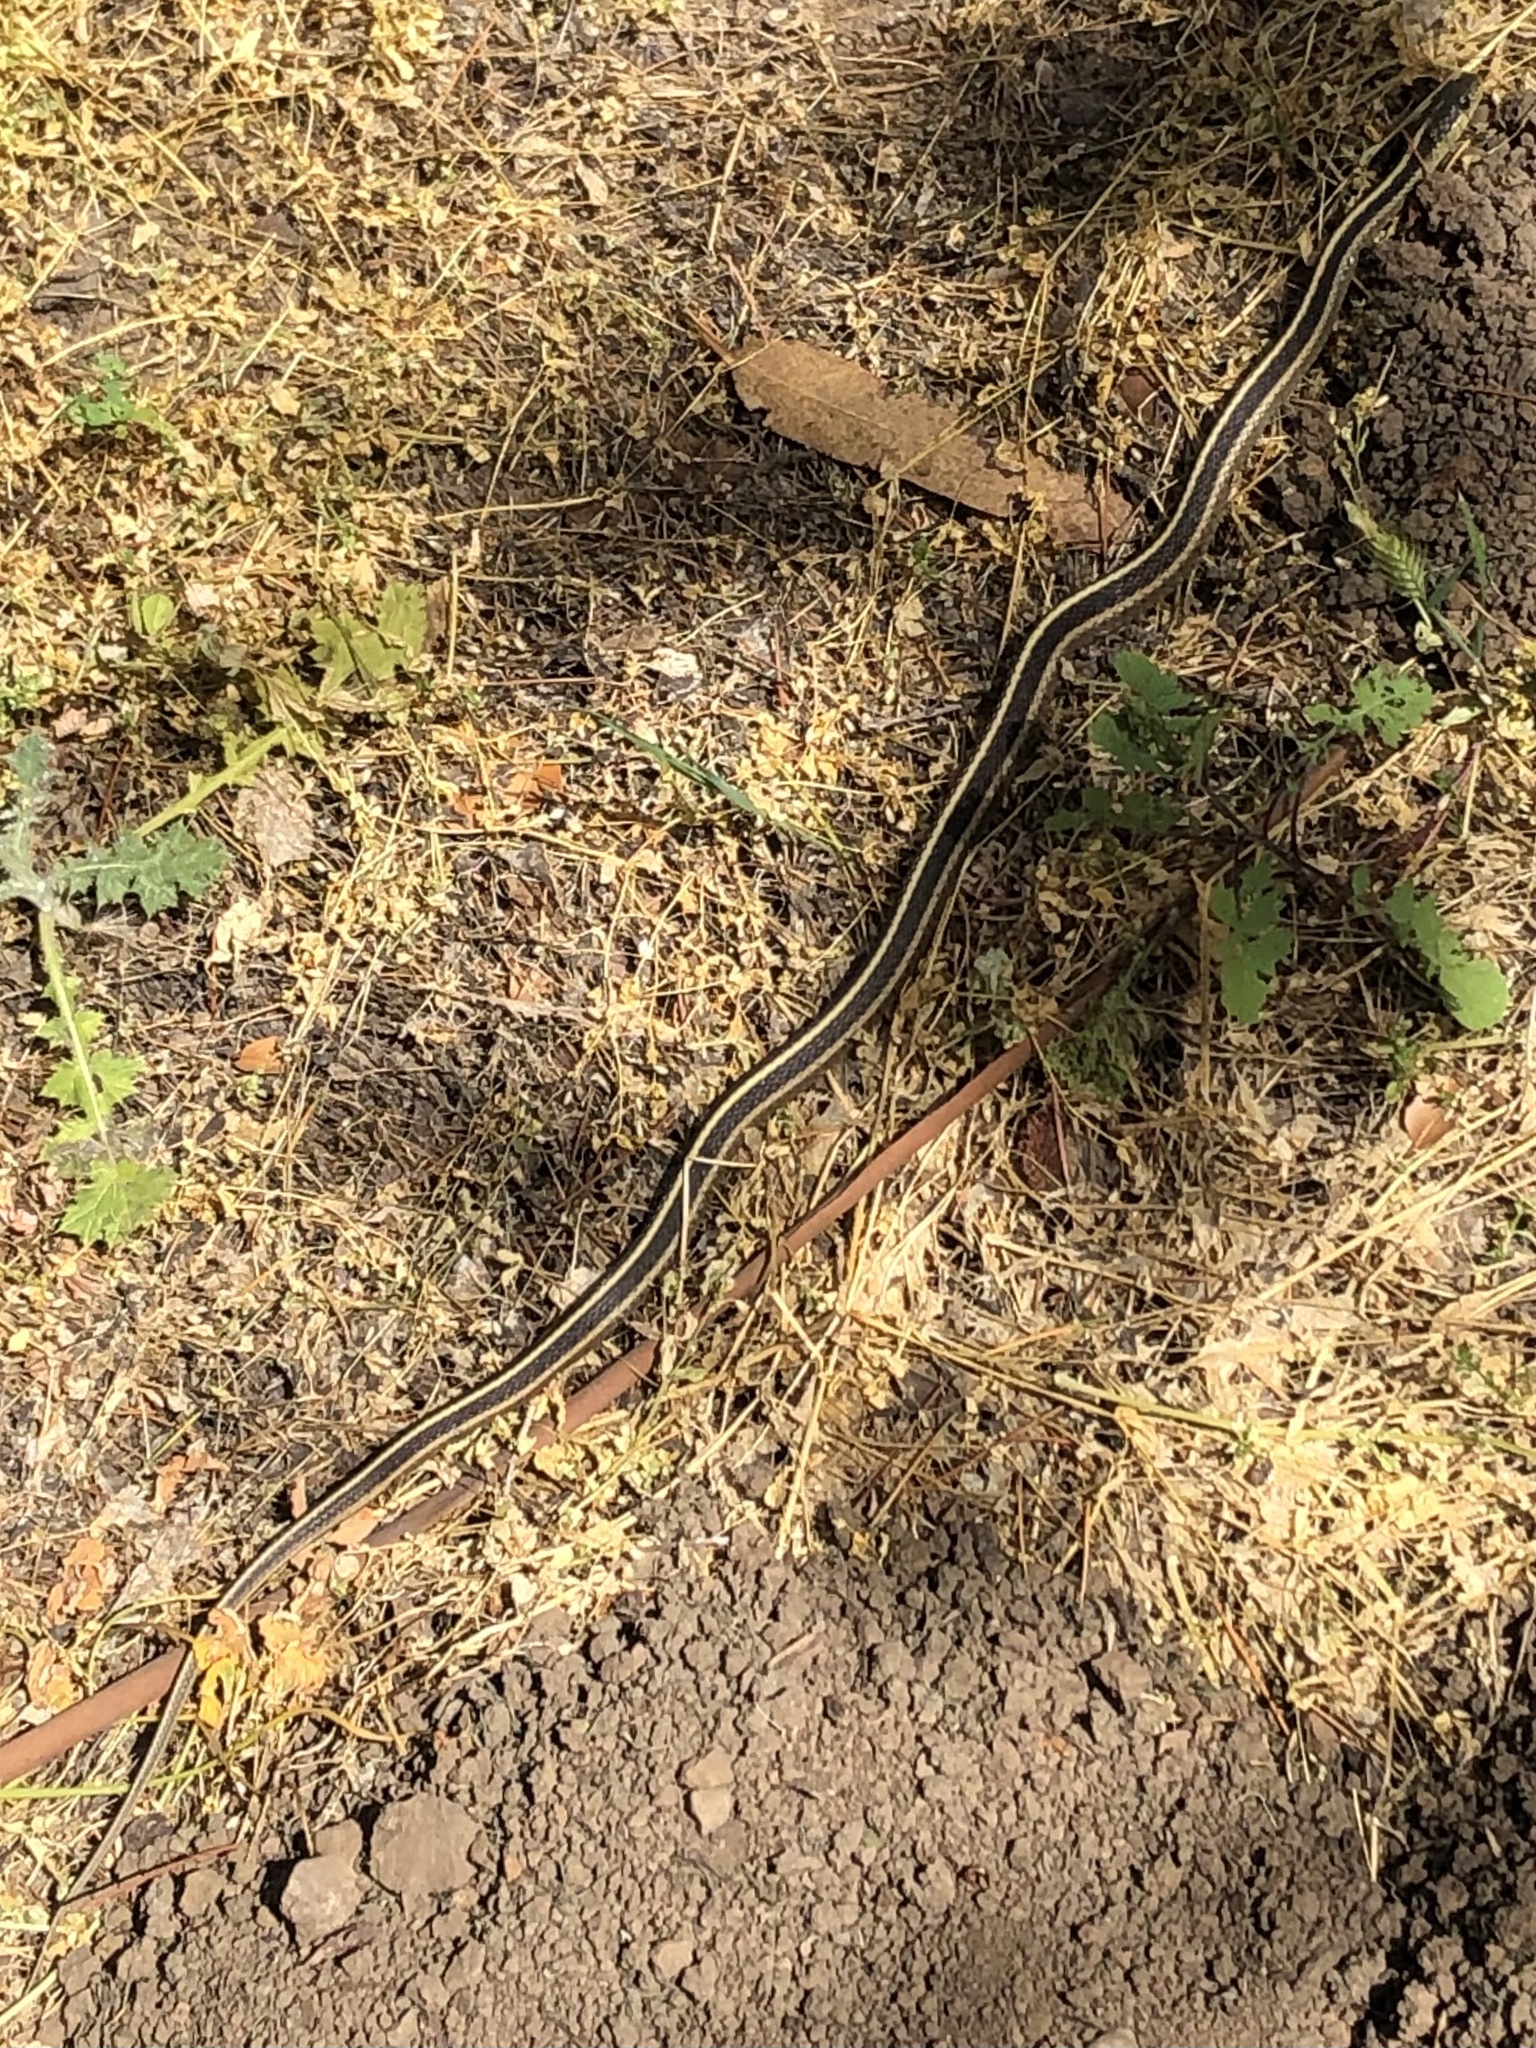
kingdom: Animalia
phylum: Chordata
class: Squamata
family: Colubridae
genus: Thamnophis
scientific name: Thamnophis elegans
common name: Western terrestrial garter snake
